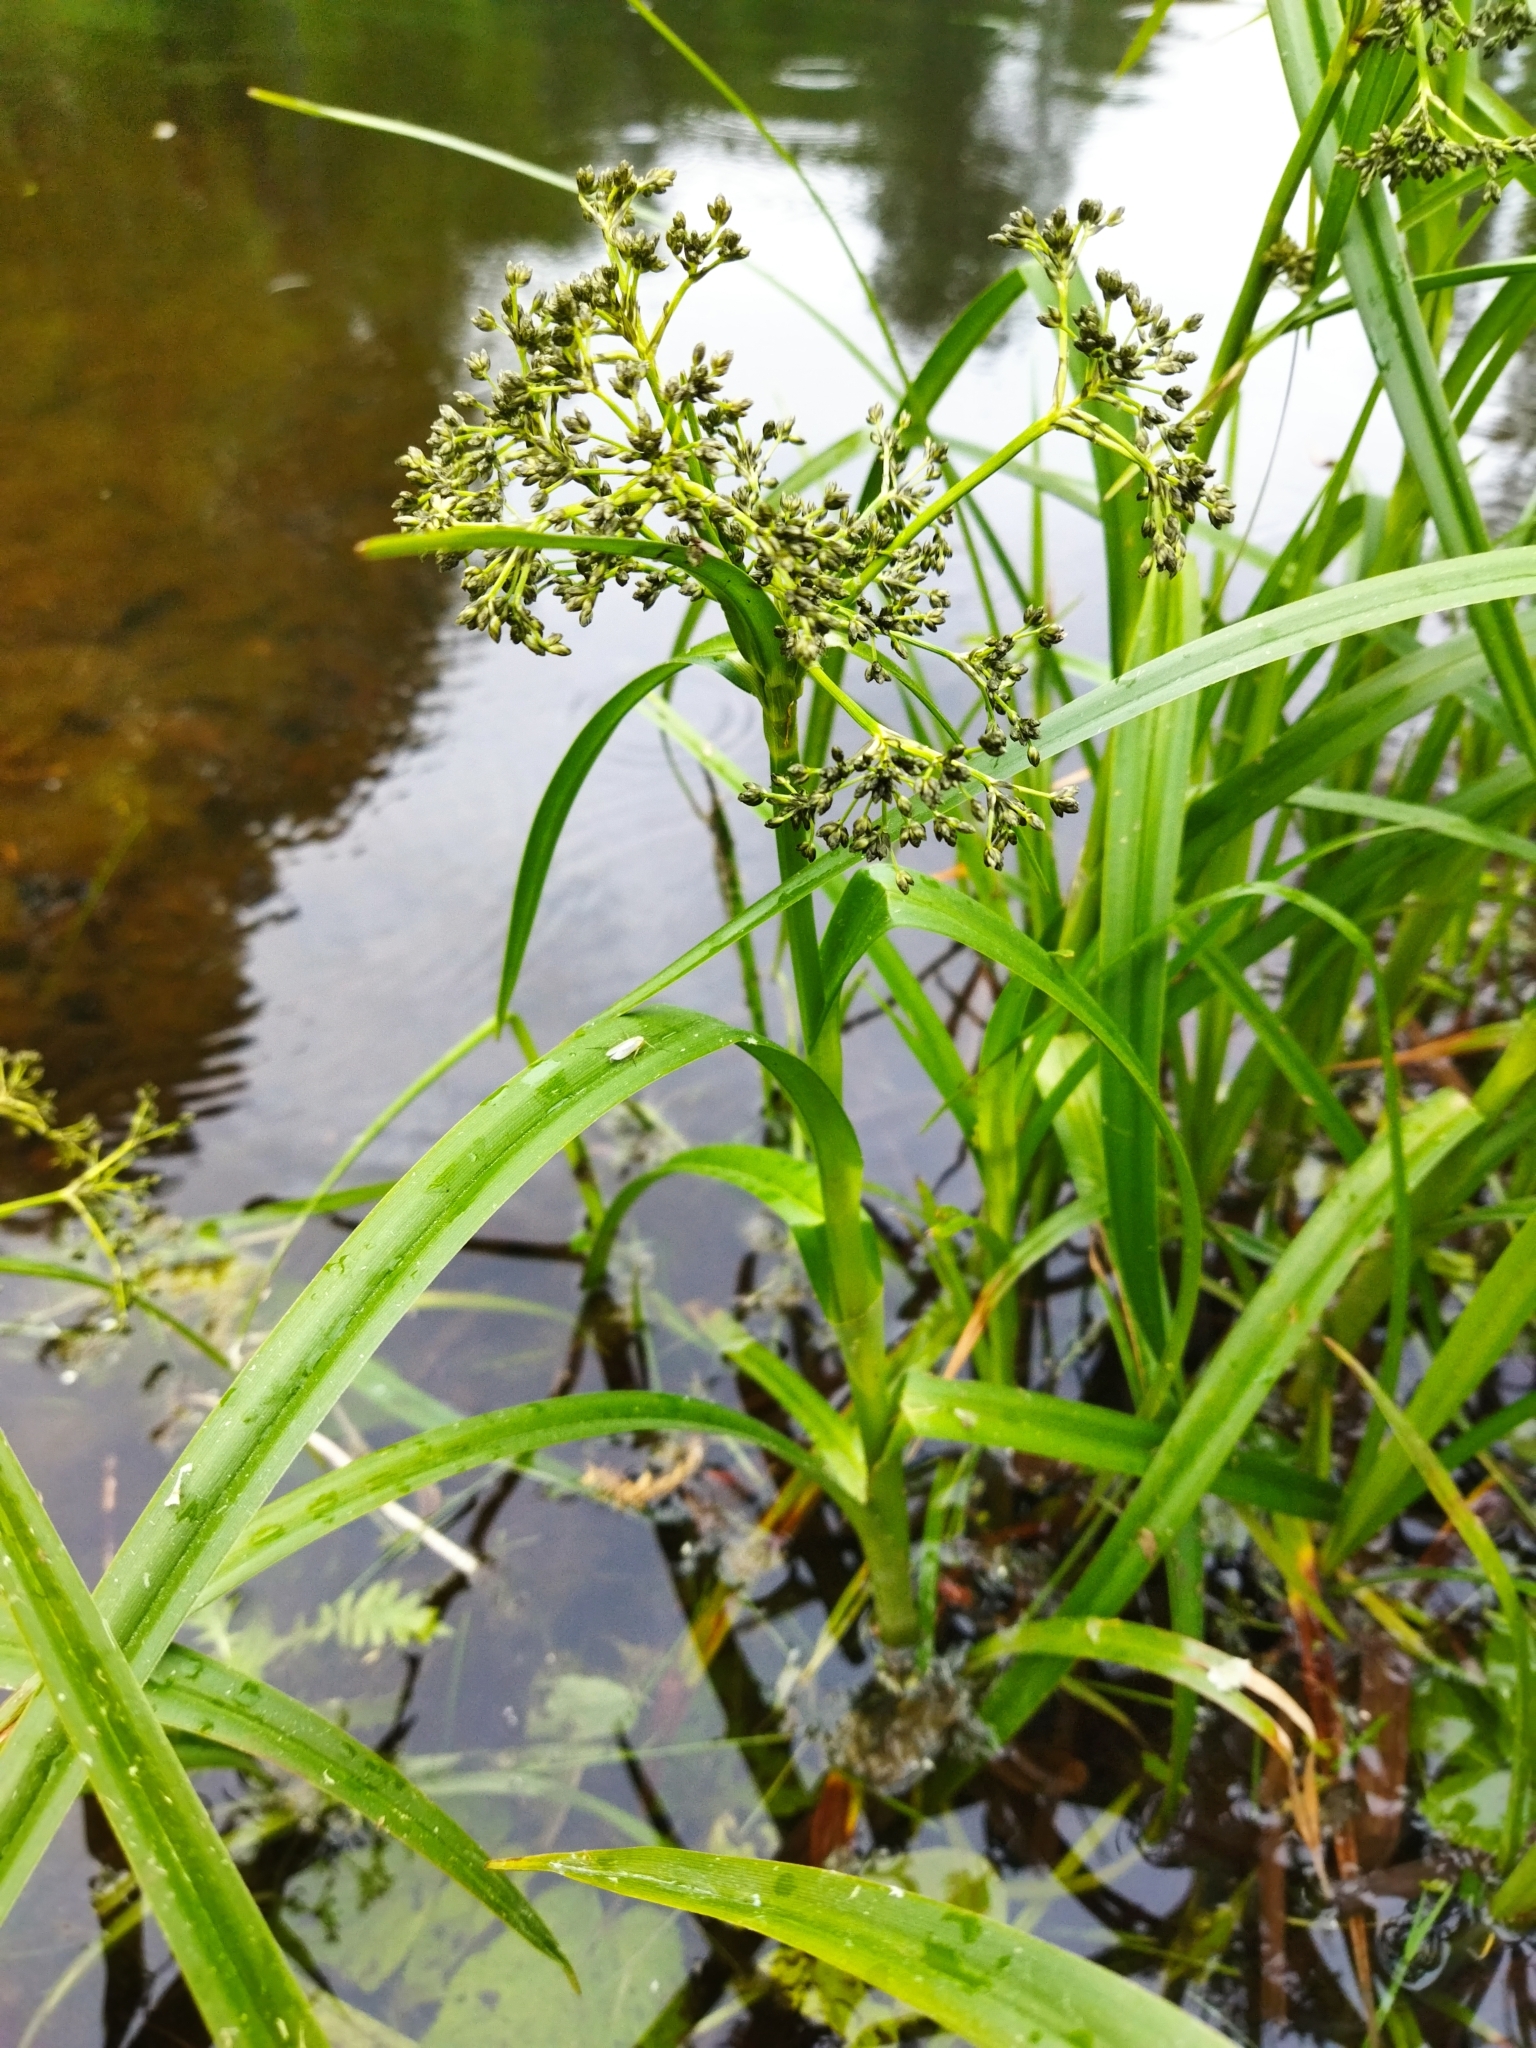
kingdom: Plantae
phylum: Tracheophyta
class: Liliopsida
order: Poales
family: Cyperaceae
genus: Scirpus
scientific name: Scirpus sylvaticus
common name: Wood club-rush
